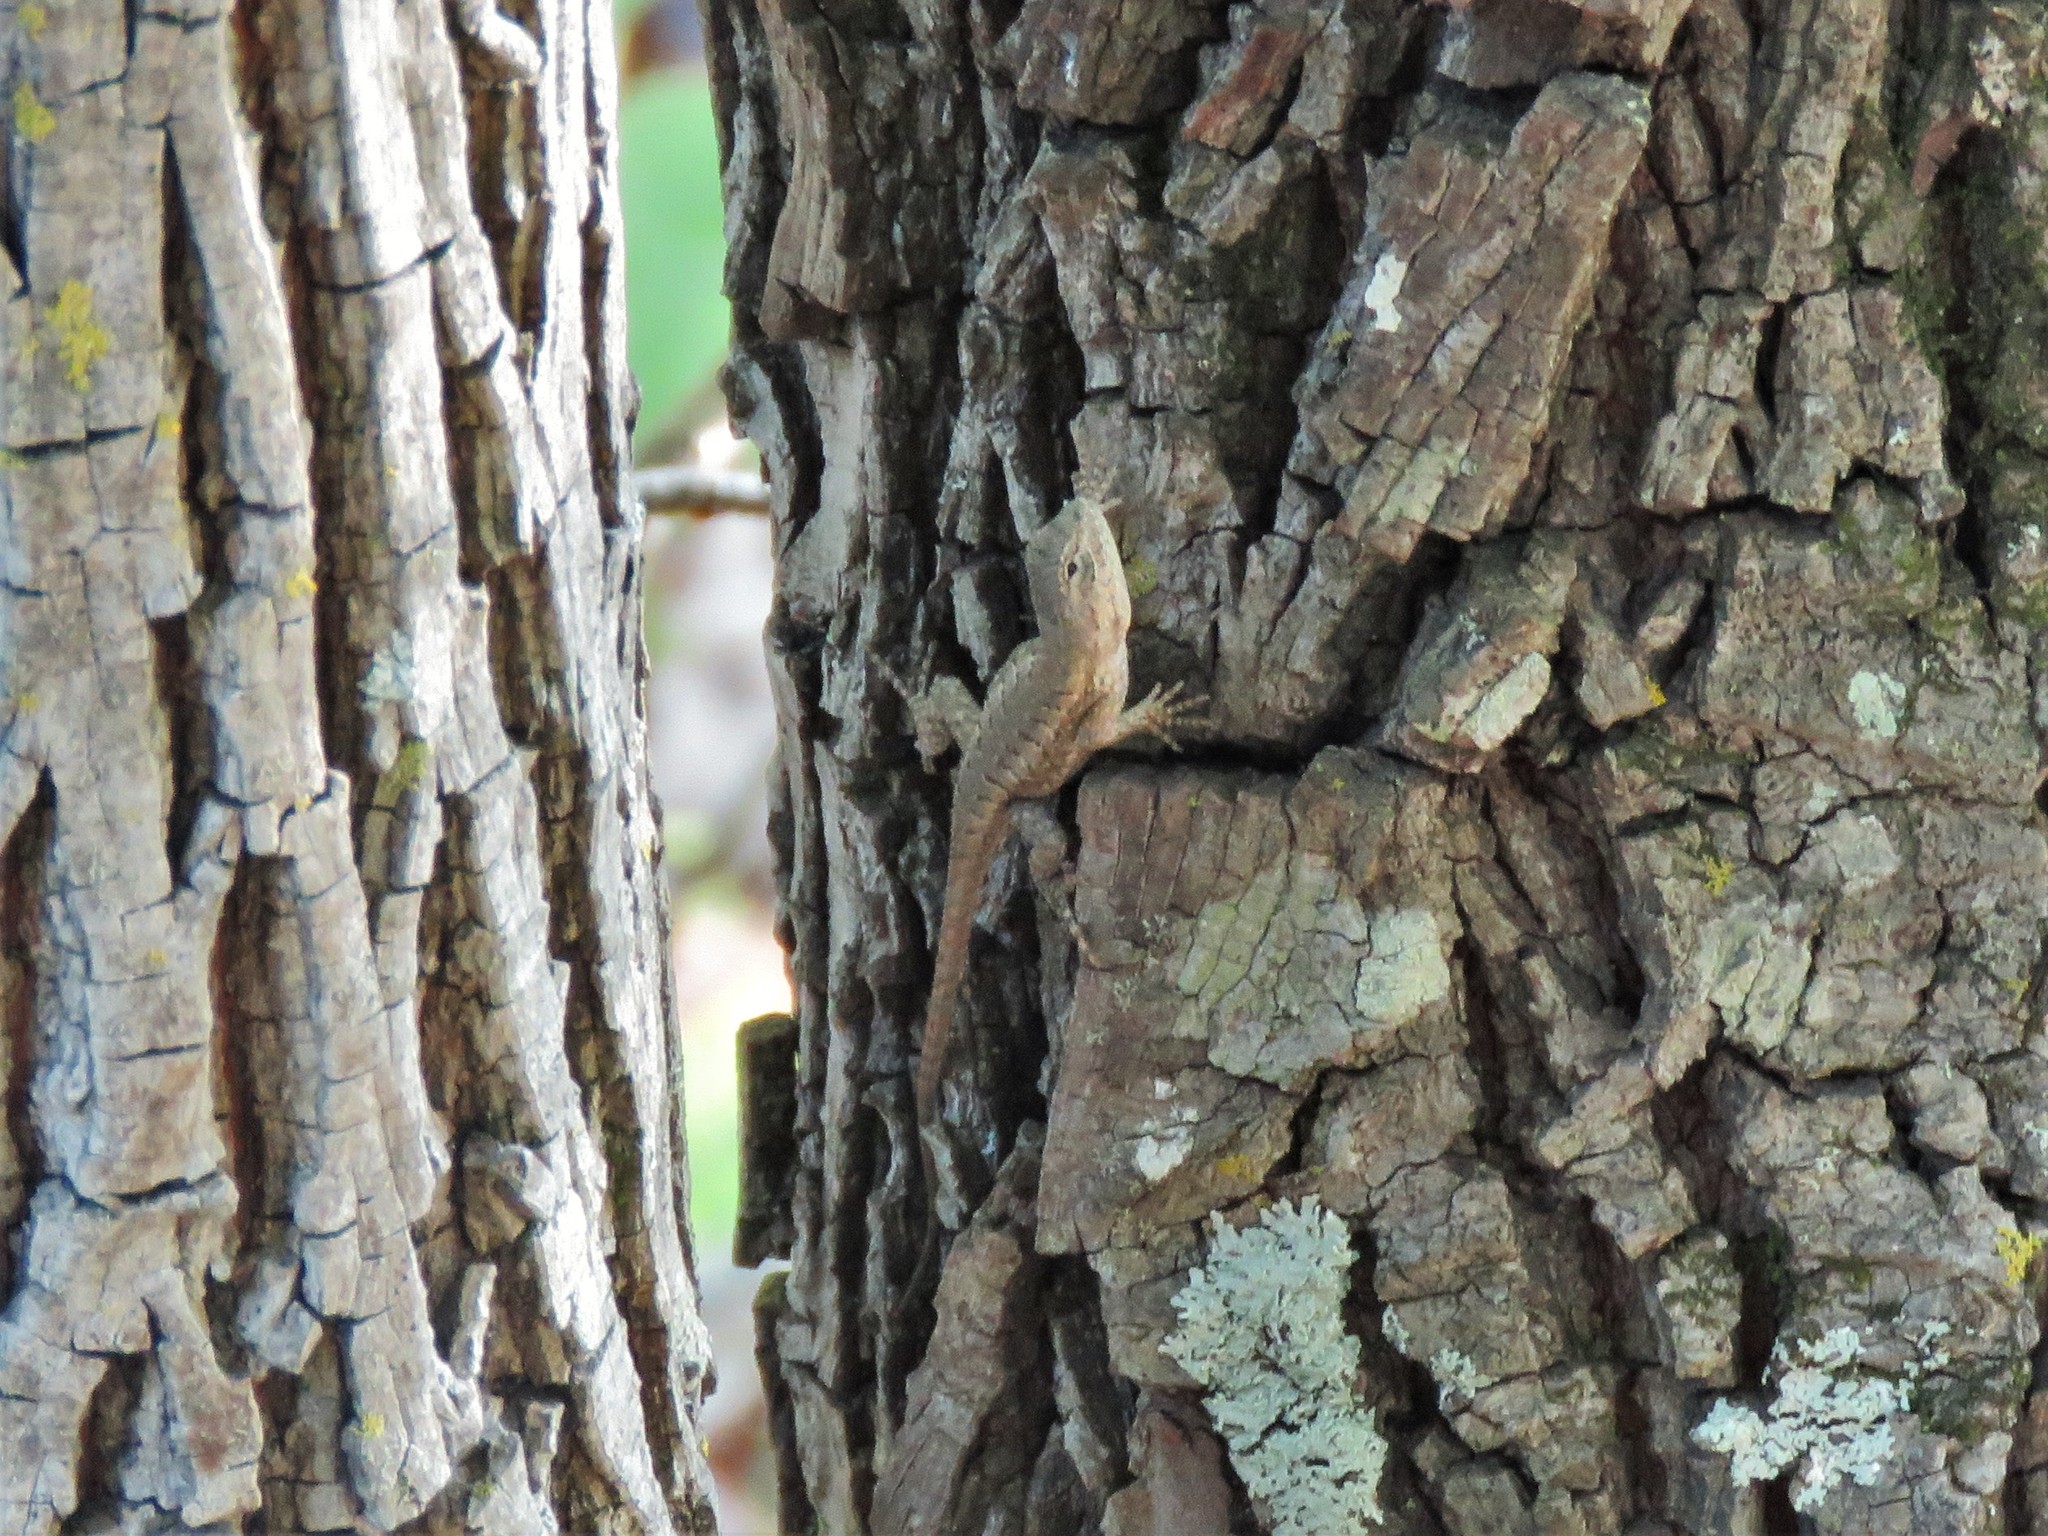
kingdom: Animalia
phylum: Chordata
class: Squamata
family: Phrynosomatidae
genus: Sceloporus
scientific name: Sceloporus consobrinus
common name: Southern prairie lizard
